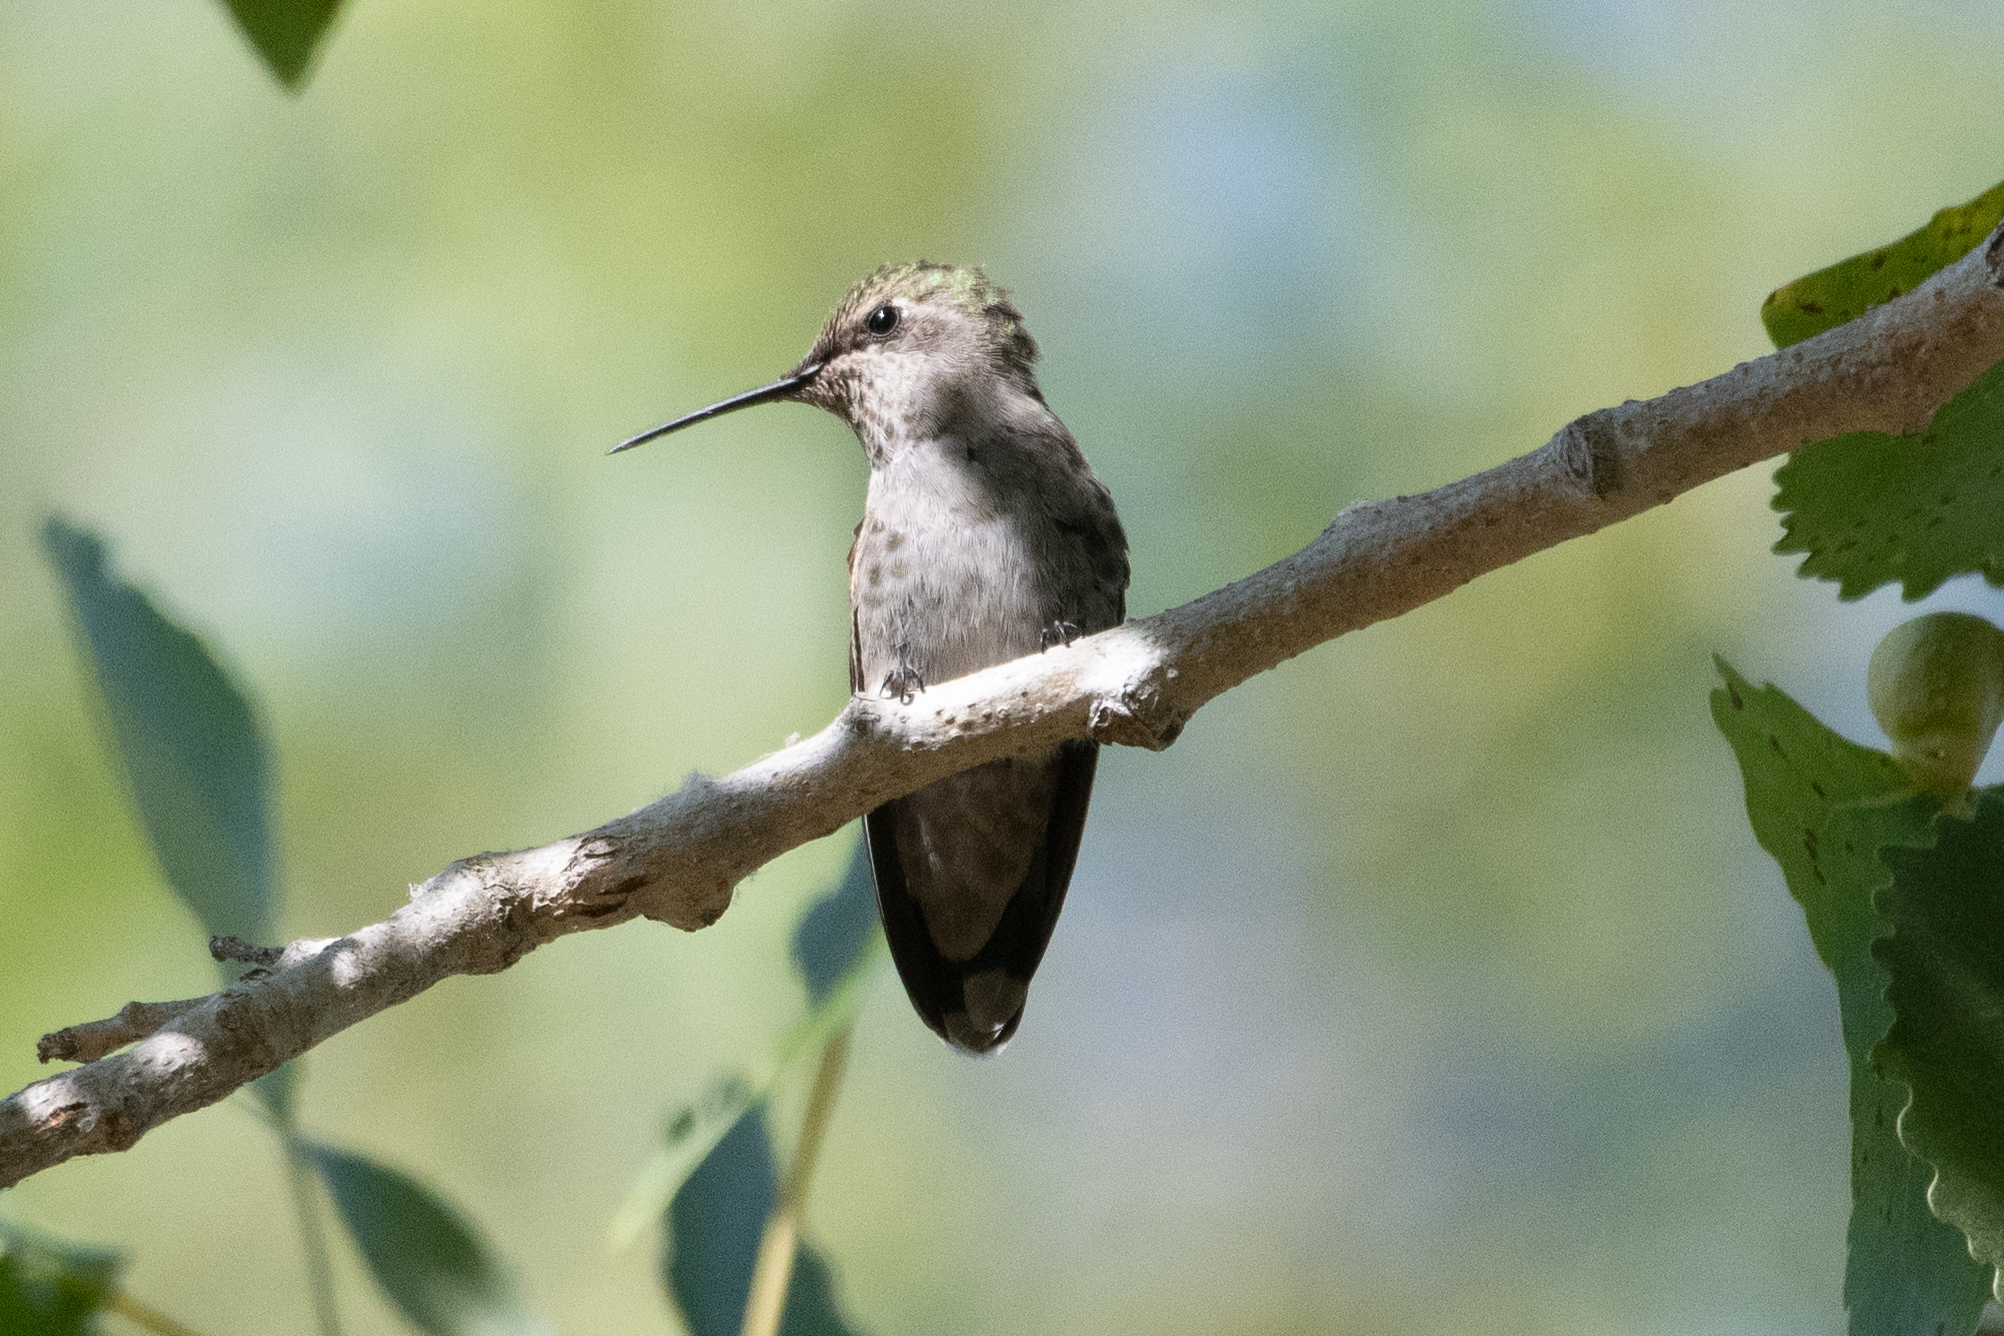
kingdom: Animalia
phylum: Chordata
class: Aves
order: Apodiformes
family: Trochilidae
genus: Calypte
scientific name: Calypte anna
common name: Anna's hummingbird
